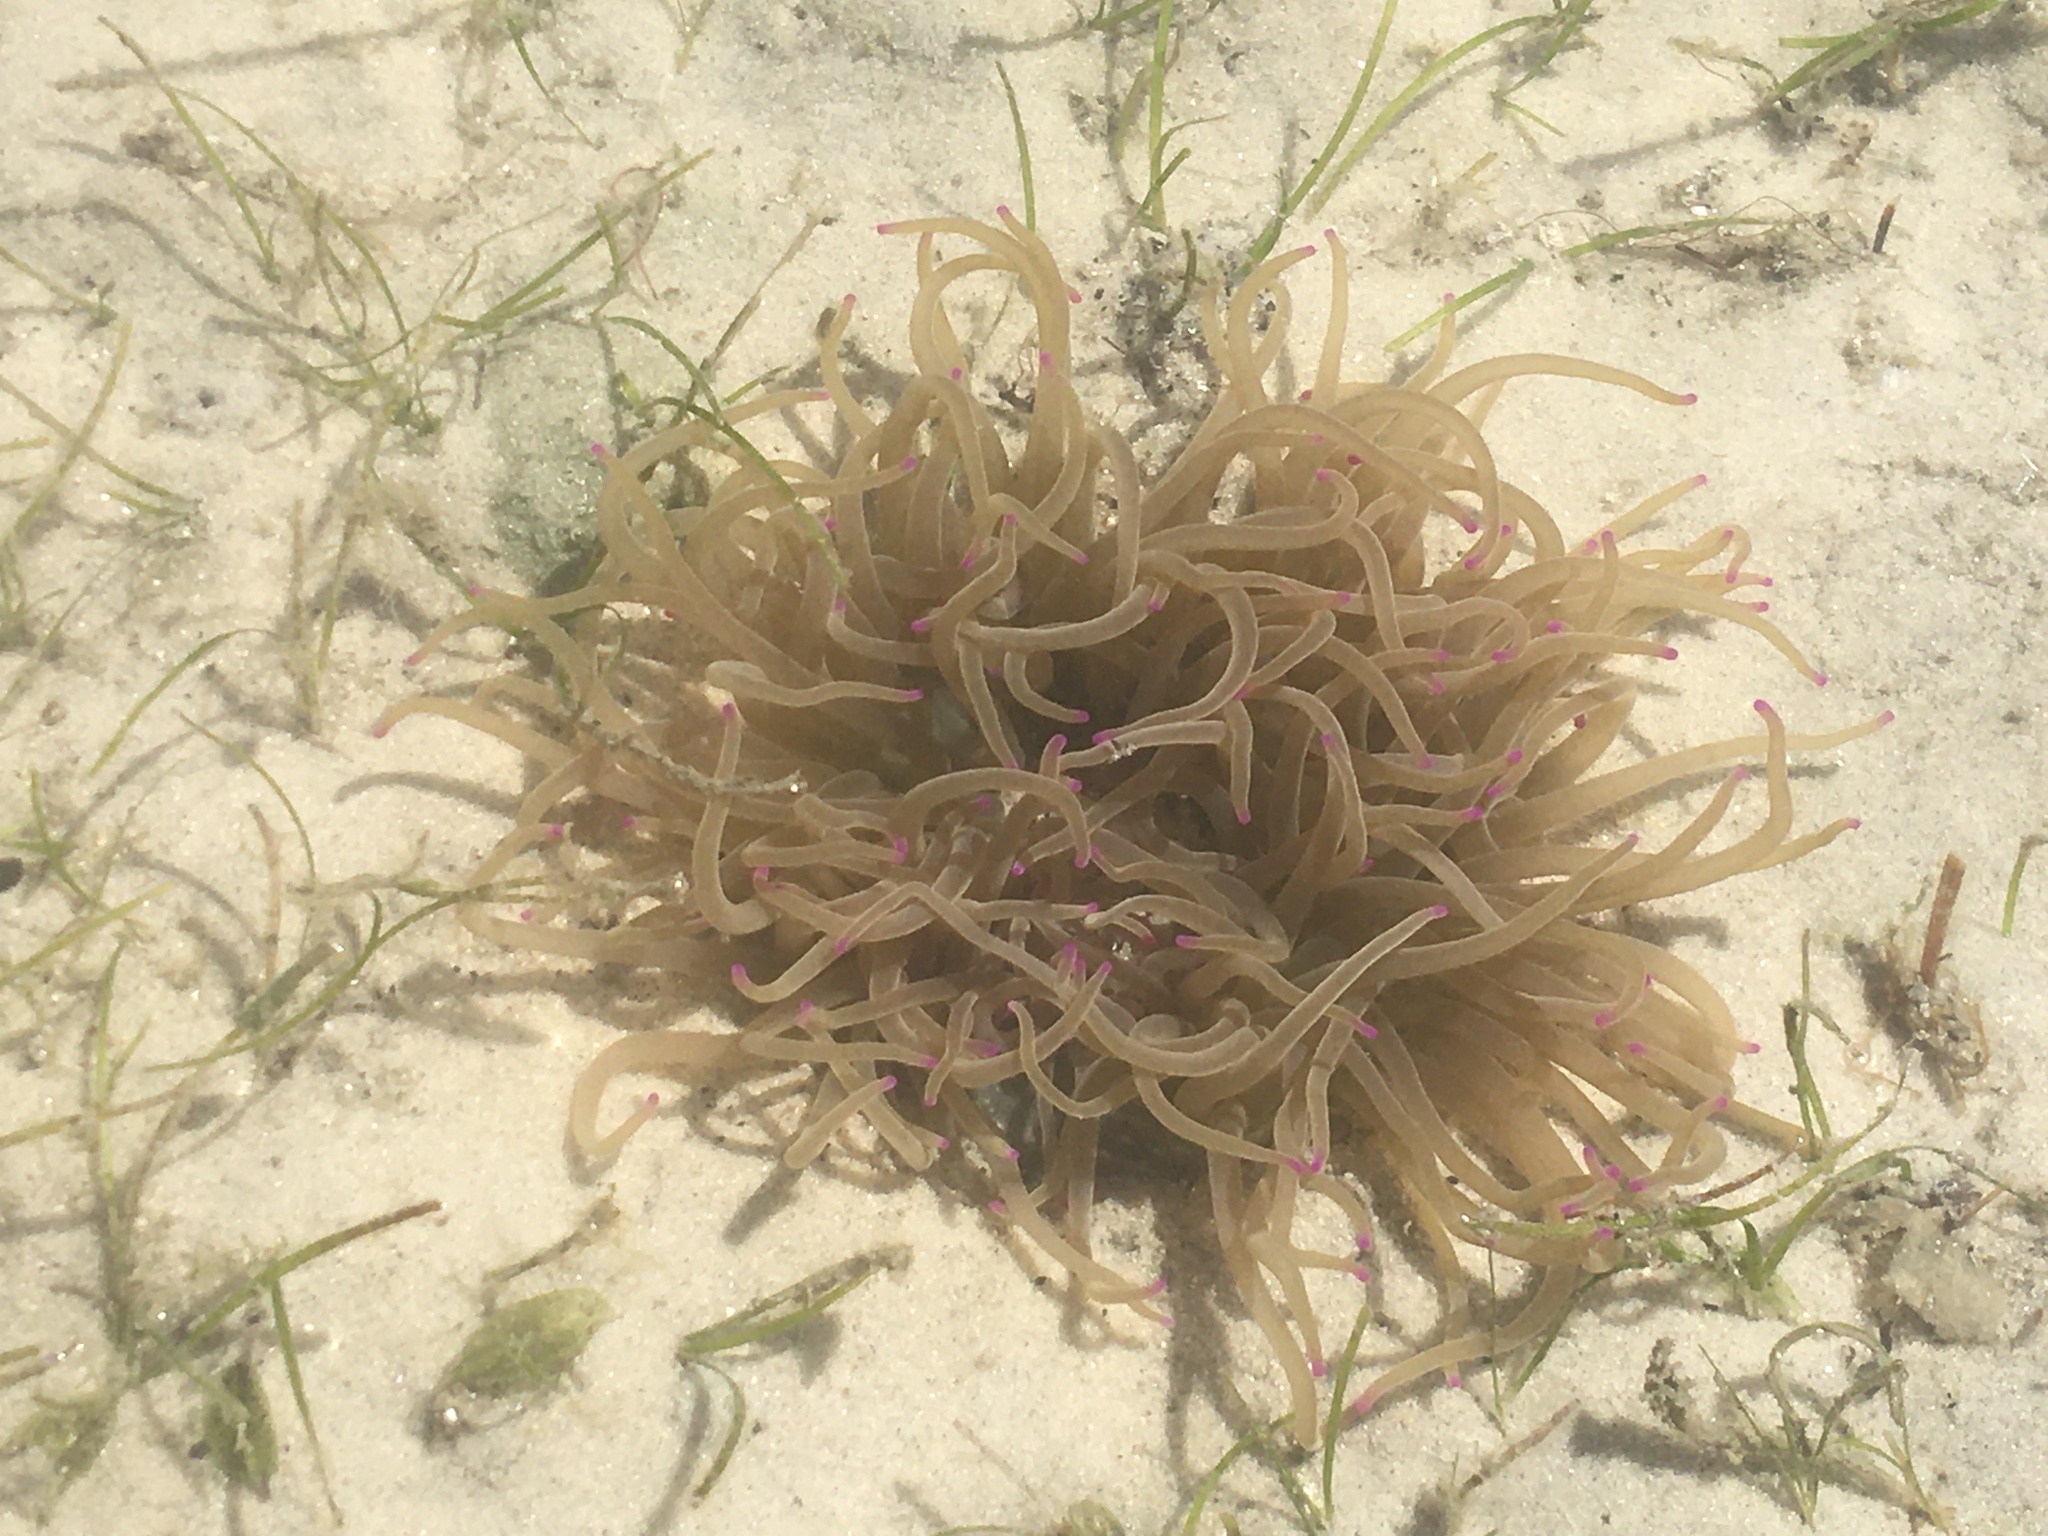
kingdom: Animalia
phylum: Cnidaria
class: Anthozoa
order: Actiniaria
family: Heteractidae
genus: Heteractis
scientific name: Heteractis
